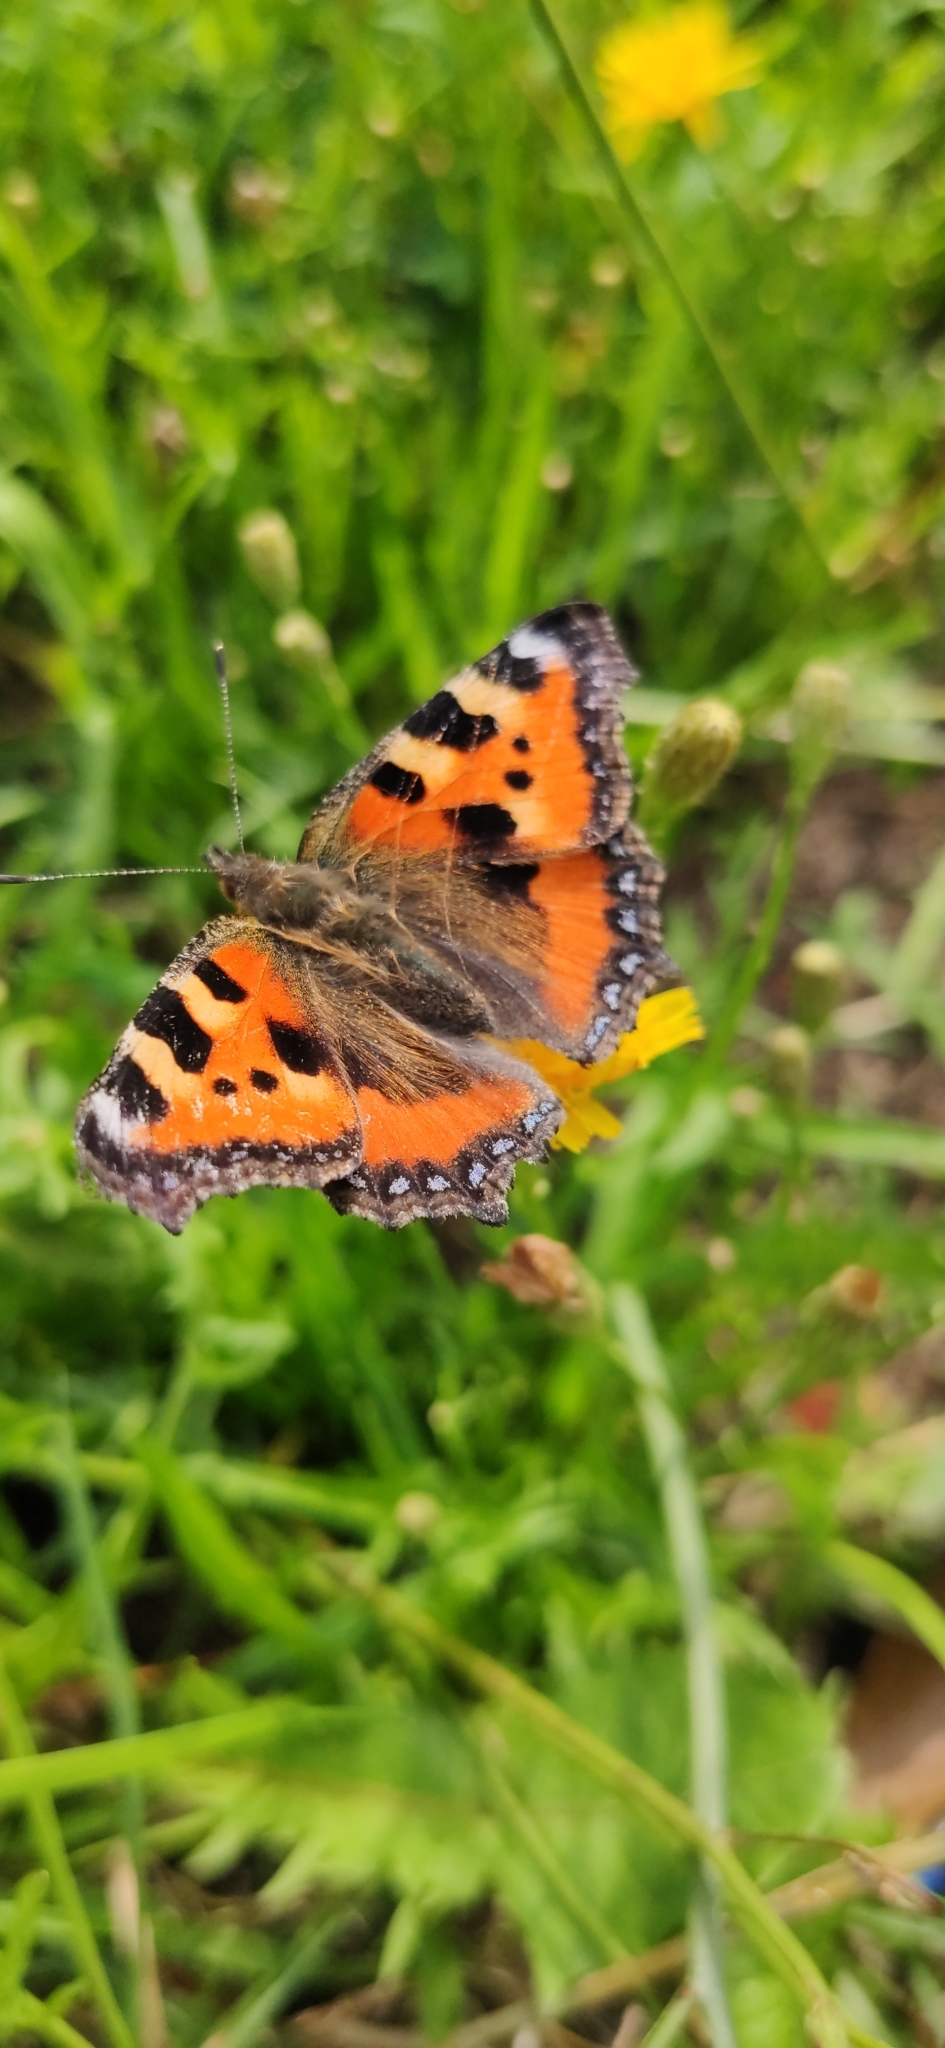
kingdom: Animalia
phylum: Arthropoda
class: Insecta
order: Lepidoptera
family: Nymphalidae
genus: Aglais
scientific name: Aglais urticae
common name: Small tortoiseshell
